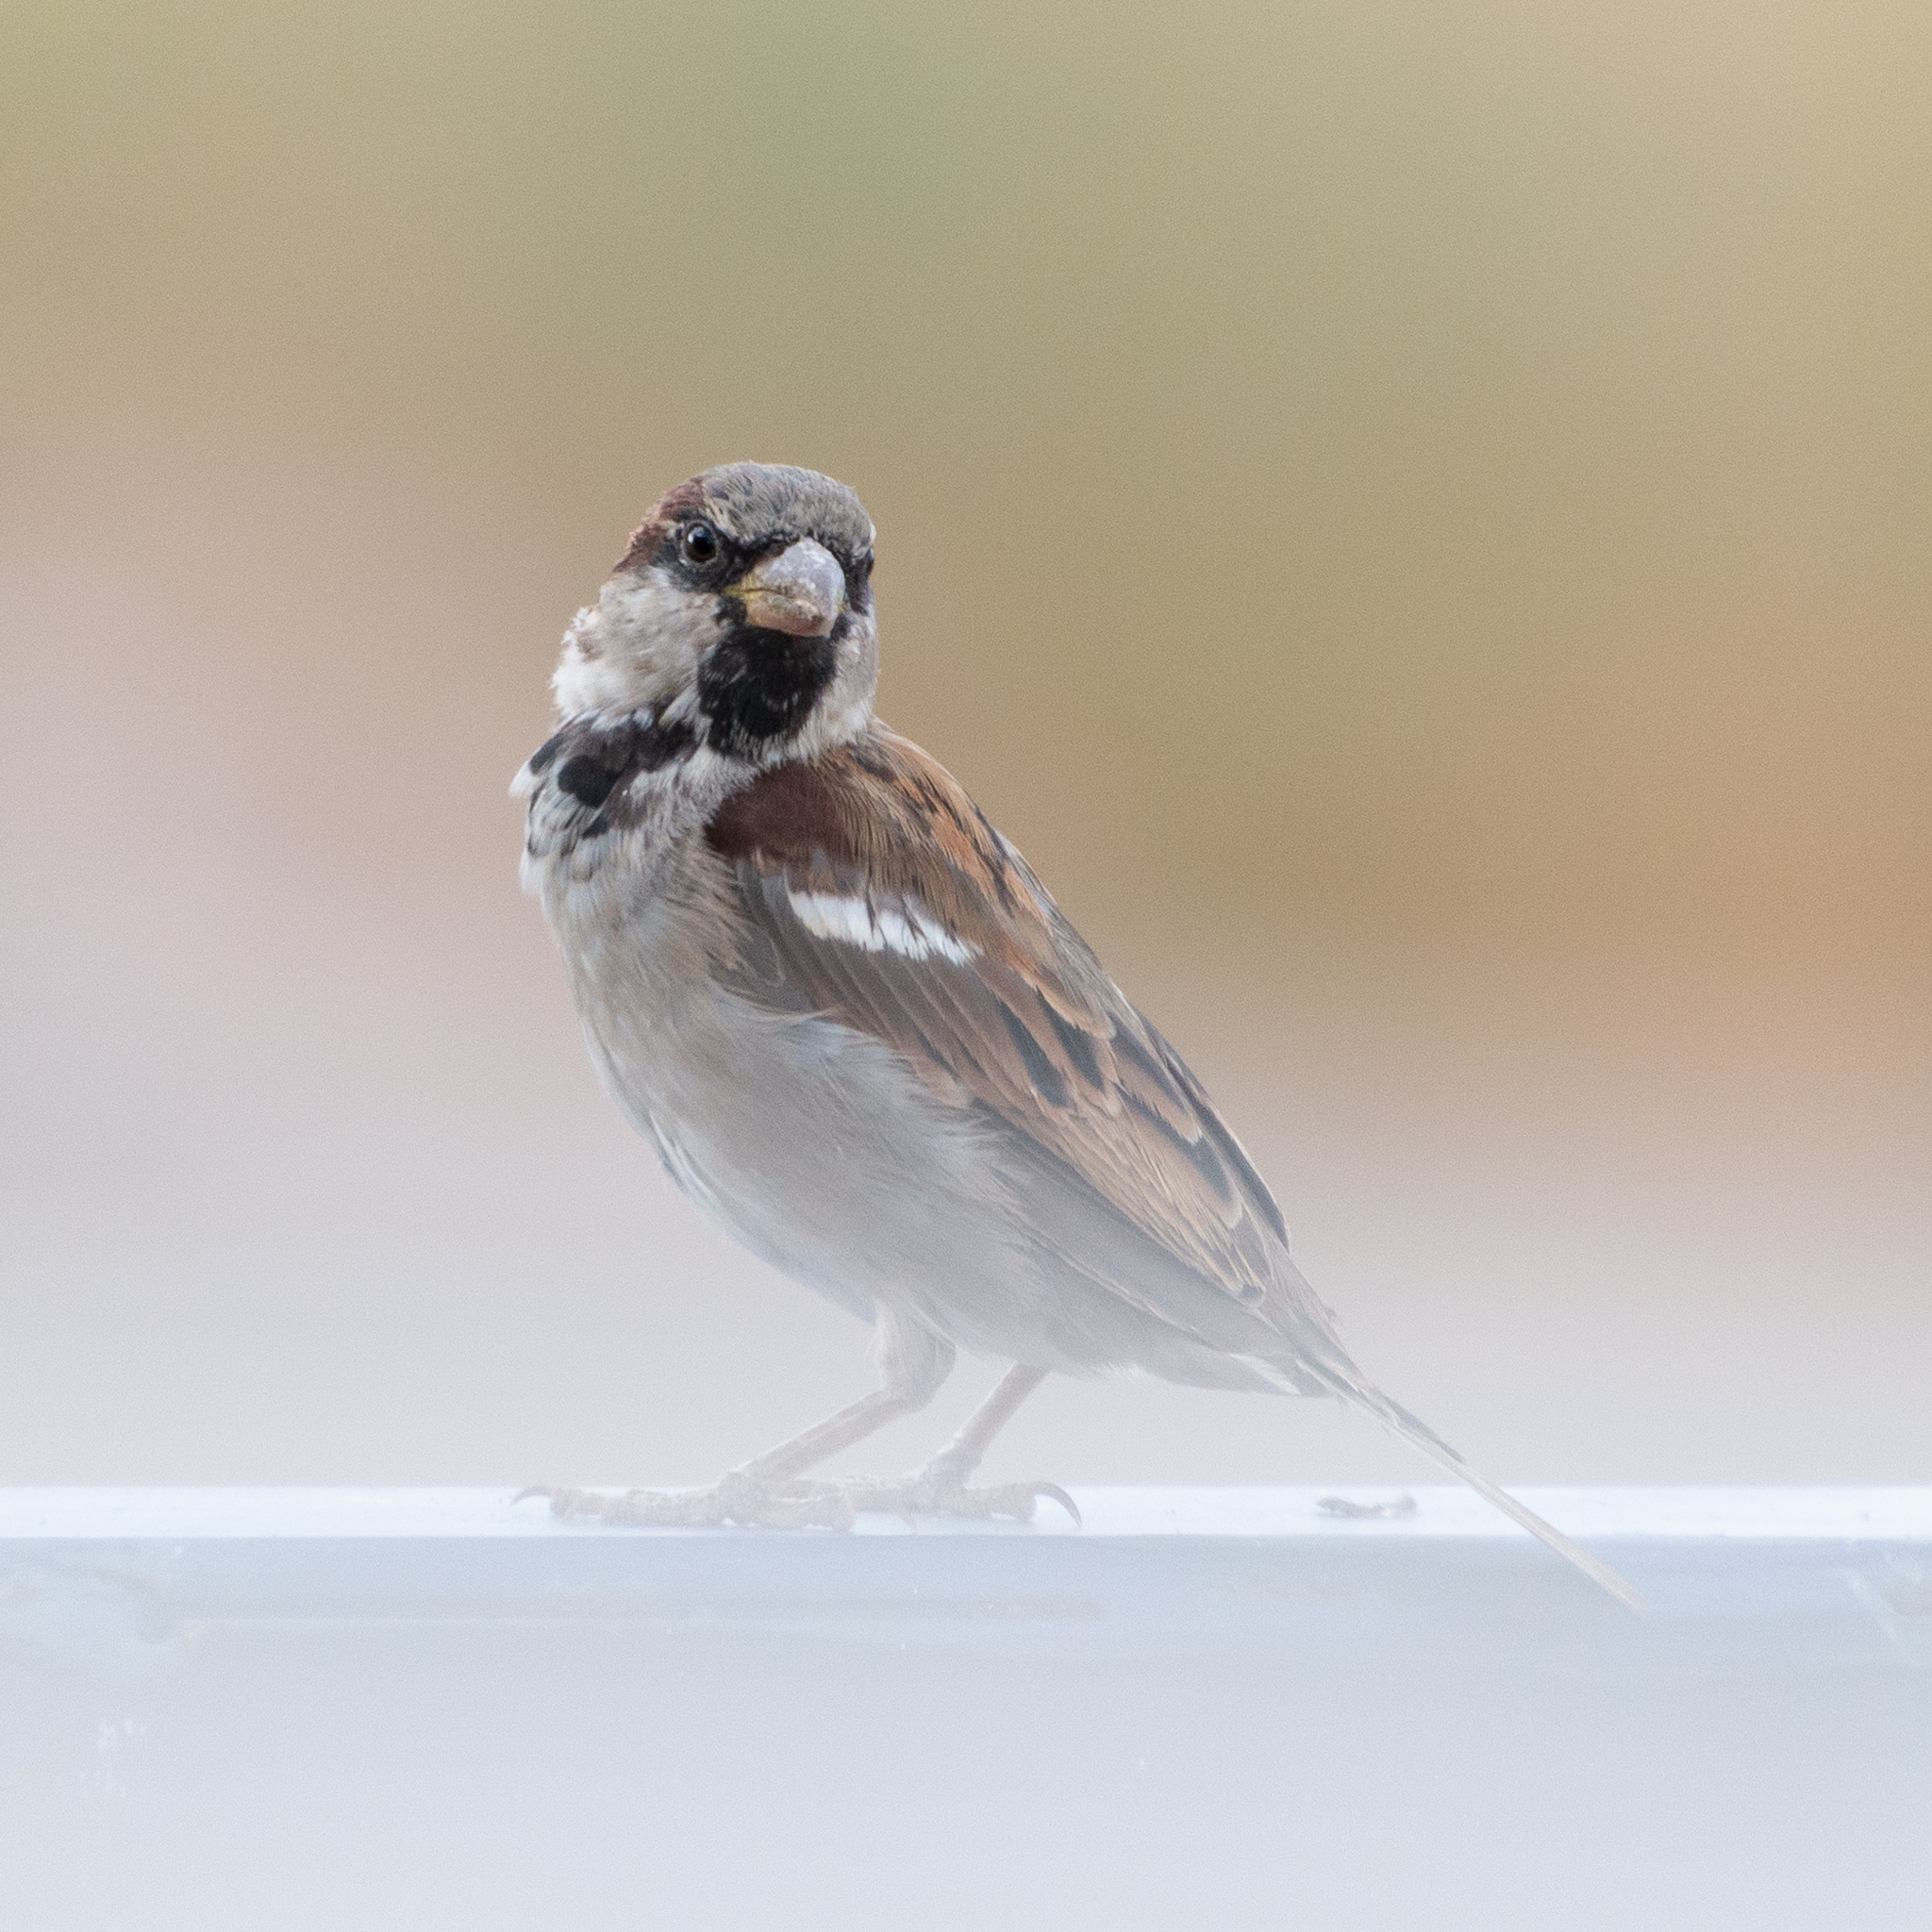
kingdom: Animalia
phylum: Chordata
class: Aves
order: Passeriformes
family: Passeridae
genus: Passer
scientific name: Passer domesticus
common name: House sparrow
